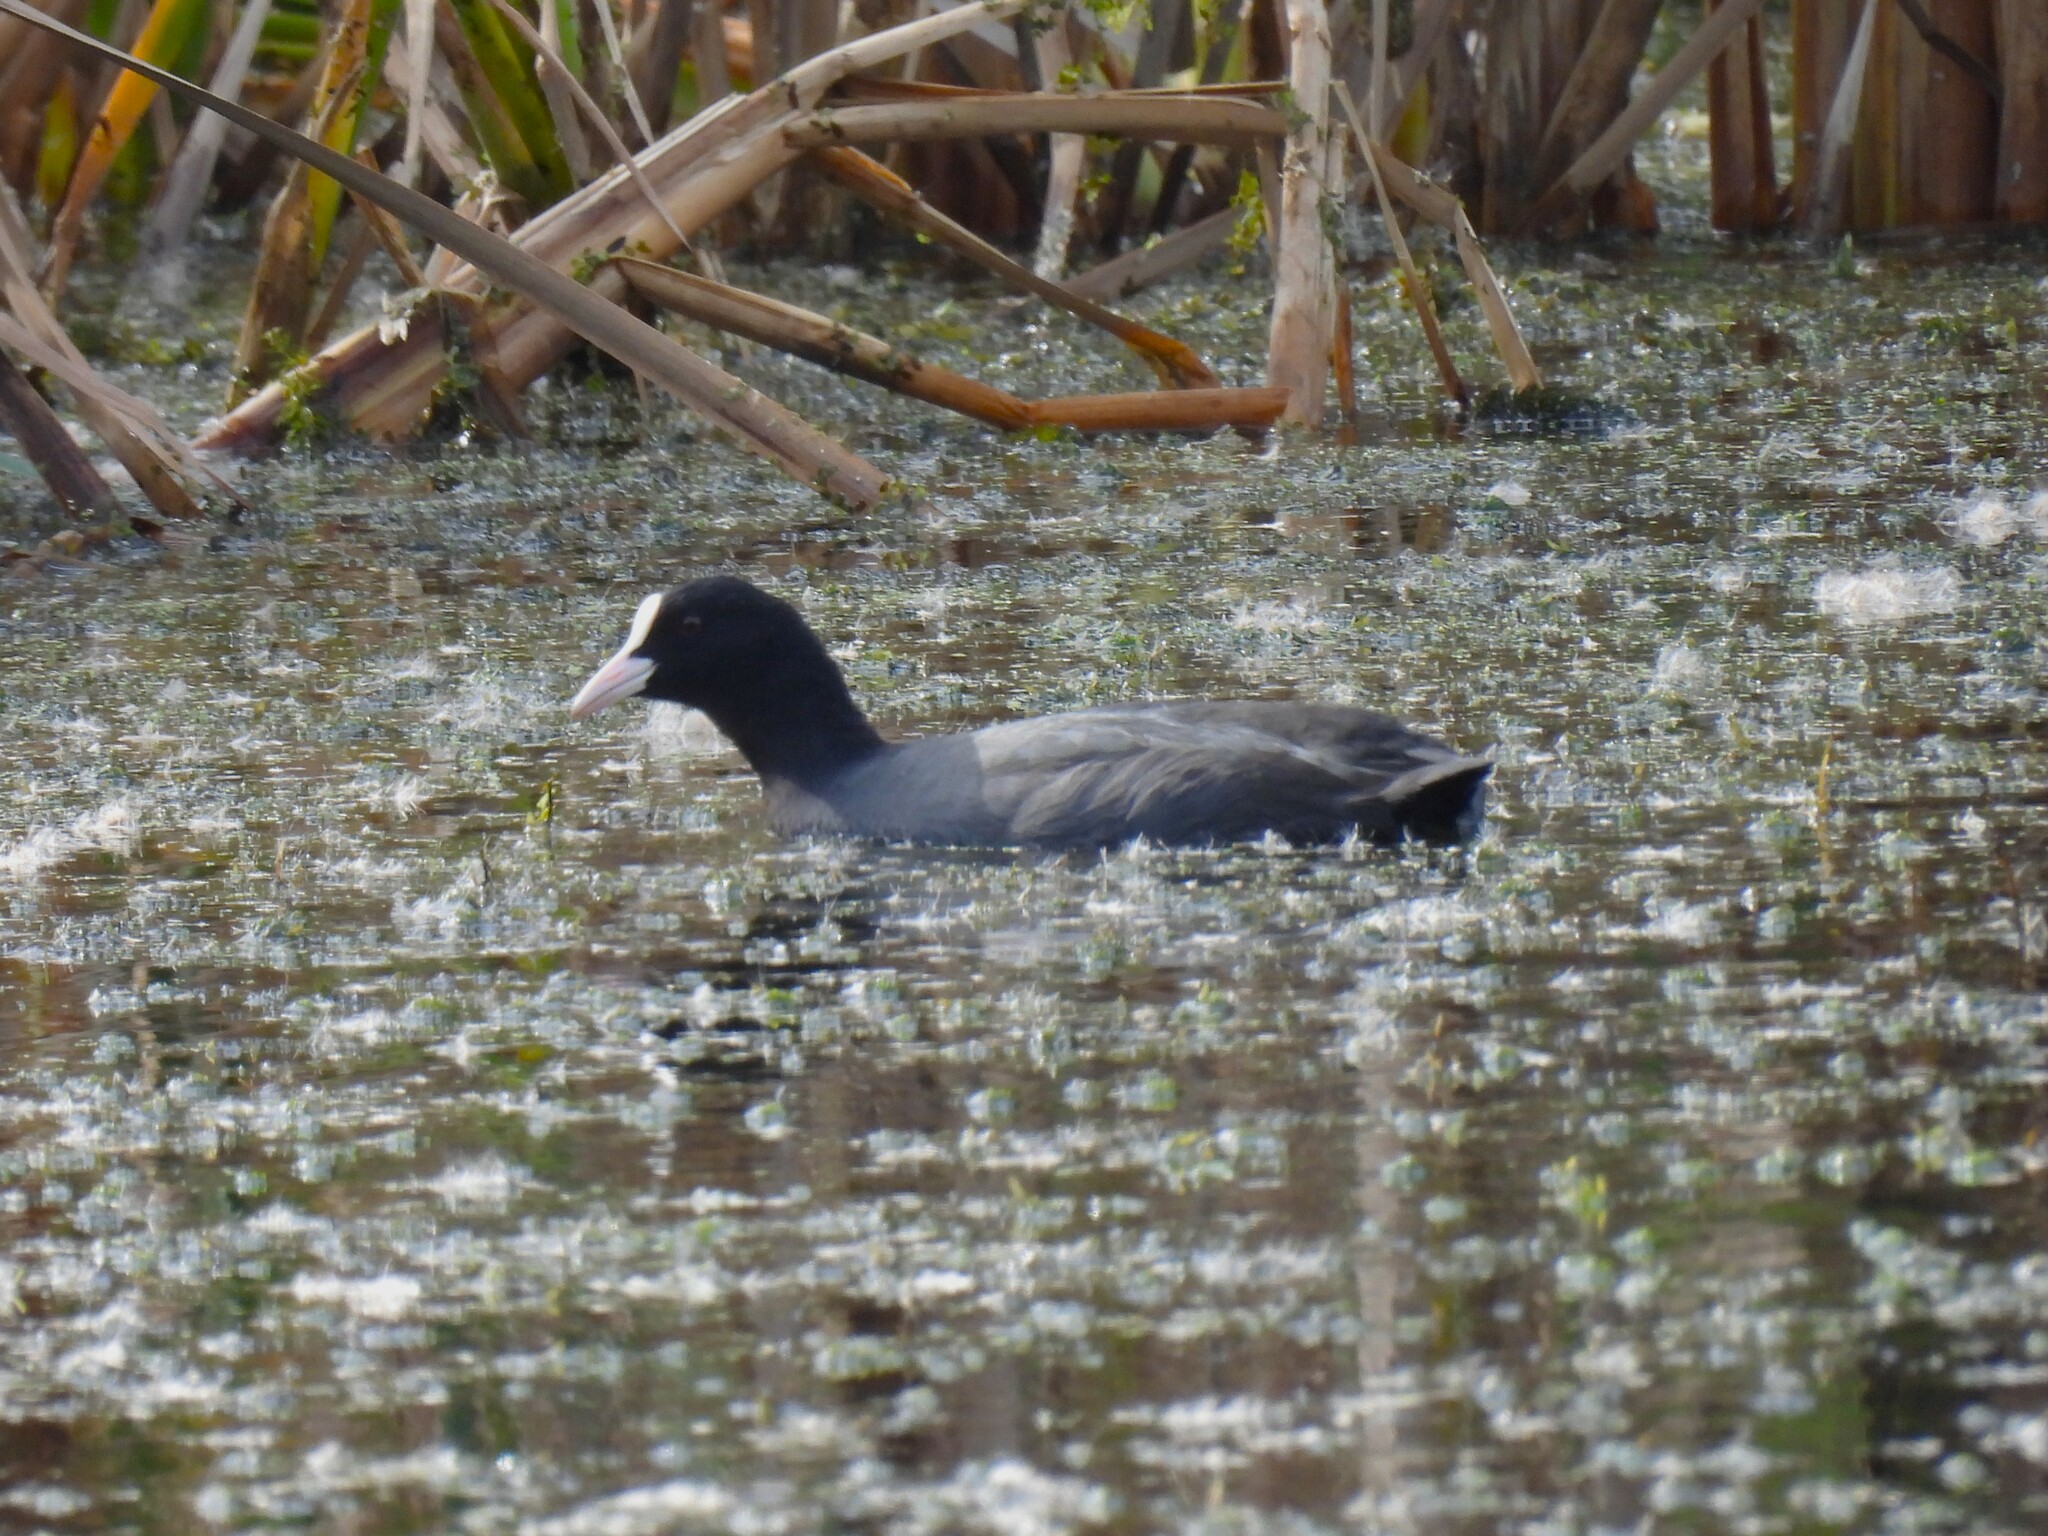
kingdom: Animalia
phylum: Chordata
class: Aves
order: Gruiformes
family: Rallidae
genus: Fulica
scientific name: Fulica atra
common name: Eurasian coot
